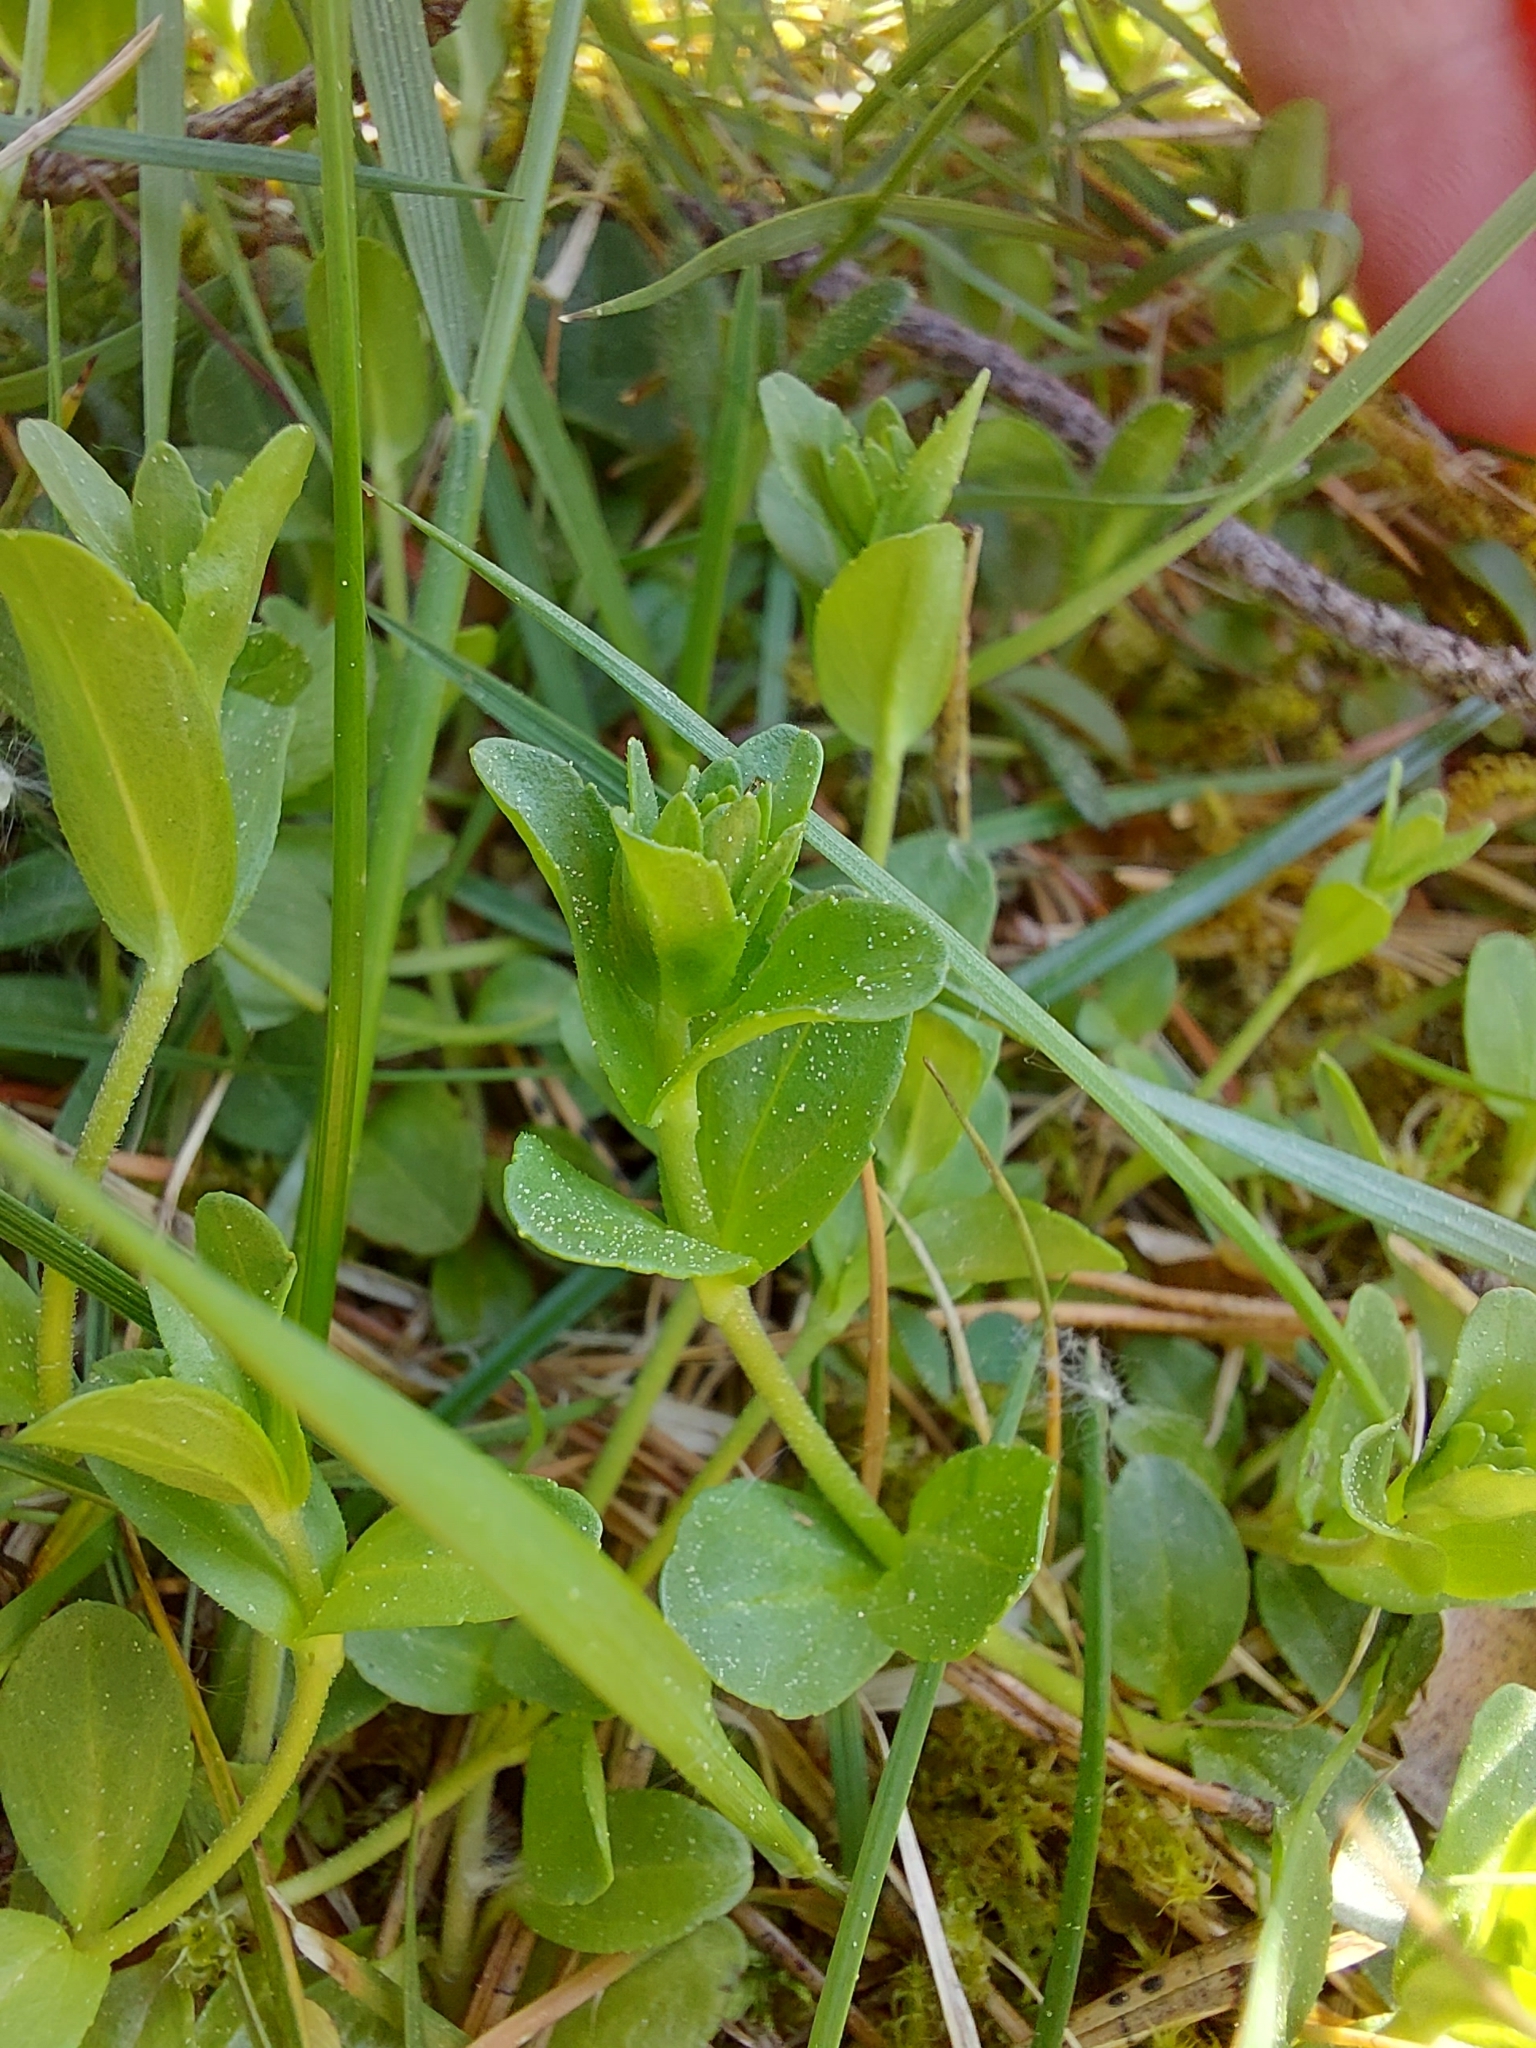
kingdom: Plantae
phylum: Tracheophyta
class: Magnoliopsida
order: Lamiales
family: Plantaginaceae
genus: Veronica
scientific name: Veronica serpyllifolia
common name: Thyme-leaved speedwell
